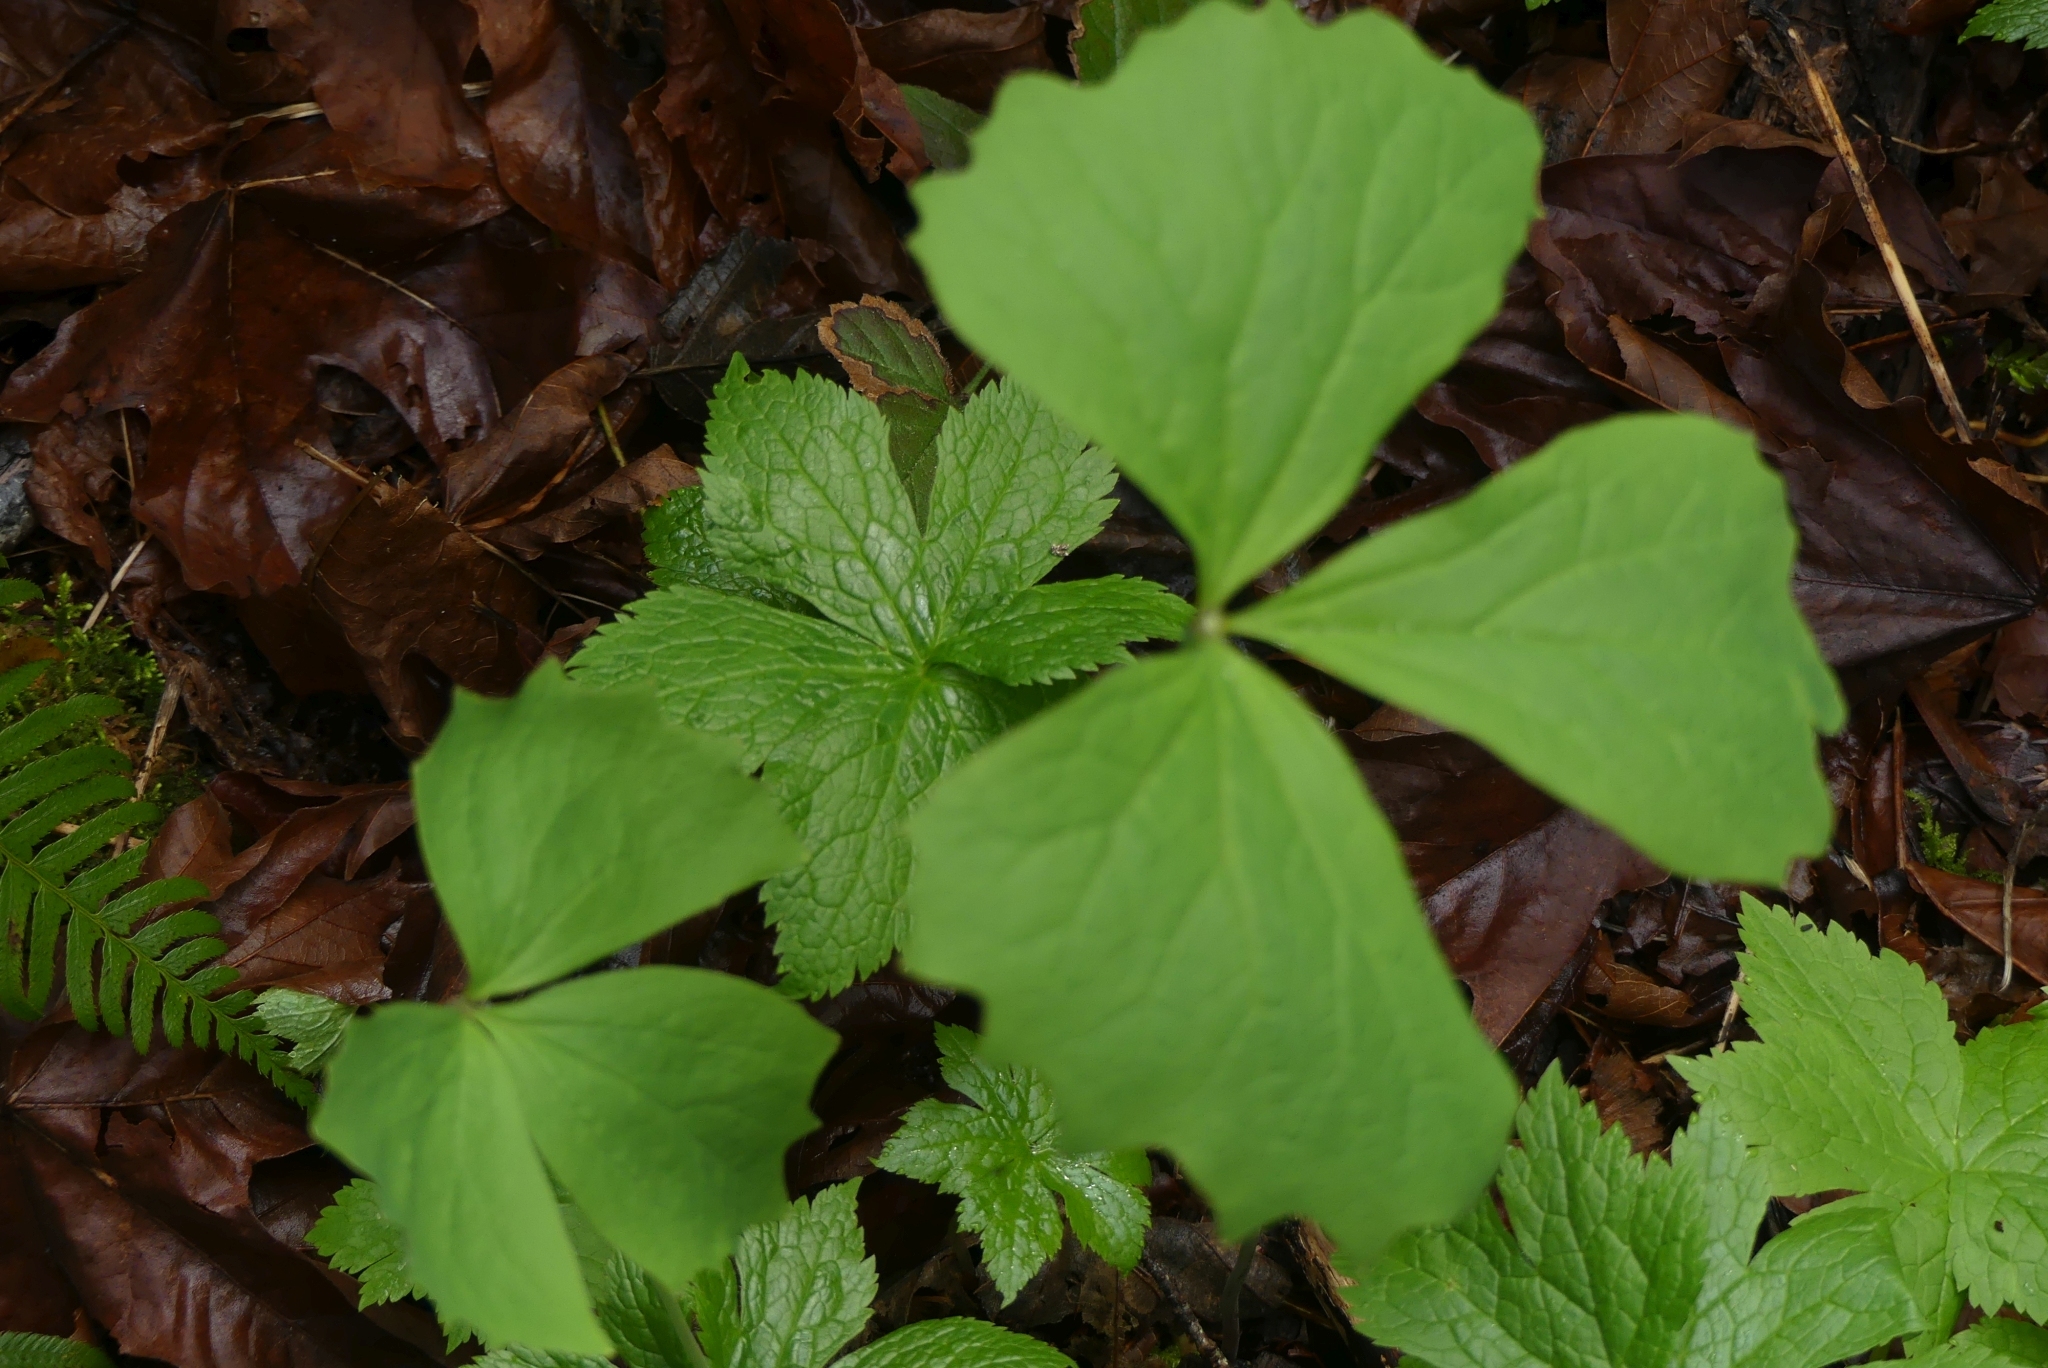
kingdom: Plantae
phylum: Tracheophyta
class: Magnoliopsida
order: Ranunculales
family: Berberidaceae
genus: Achlys
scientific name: Achlys triphylla
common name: Vanilla-leaf
